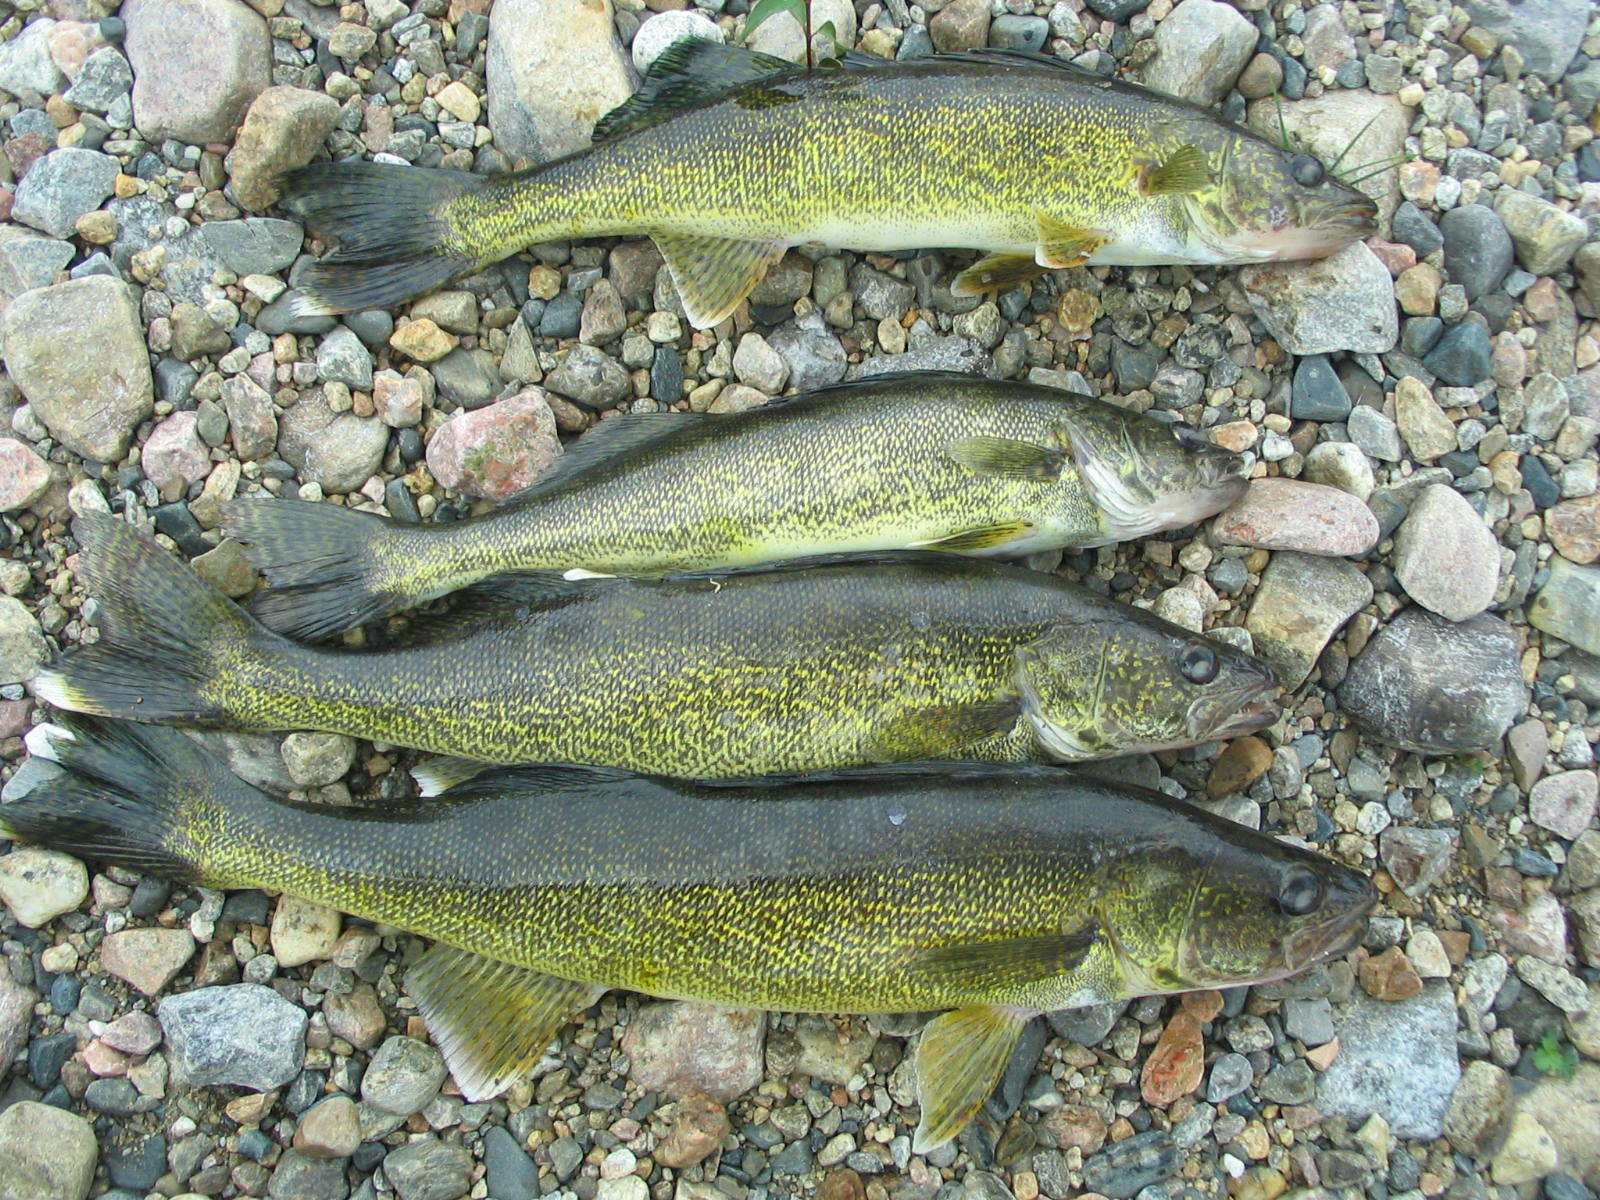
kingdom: Animalia
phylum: Chordata
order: Perciformes
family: Percidae
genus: Sander
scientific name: Sander vitreus
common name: Walleye
